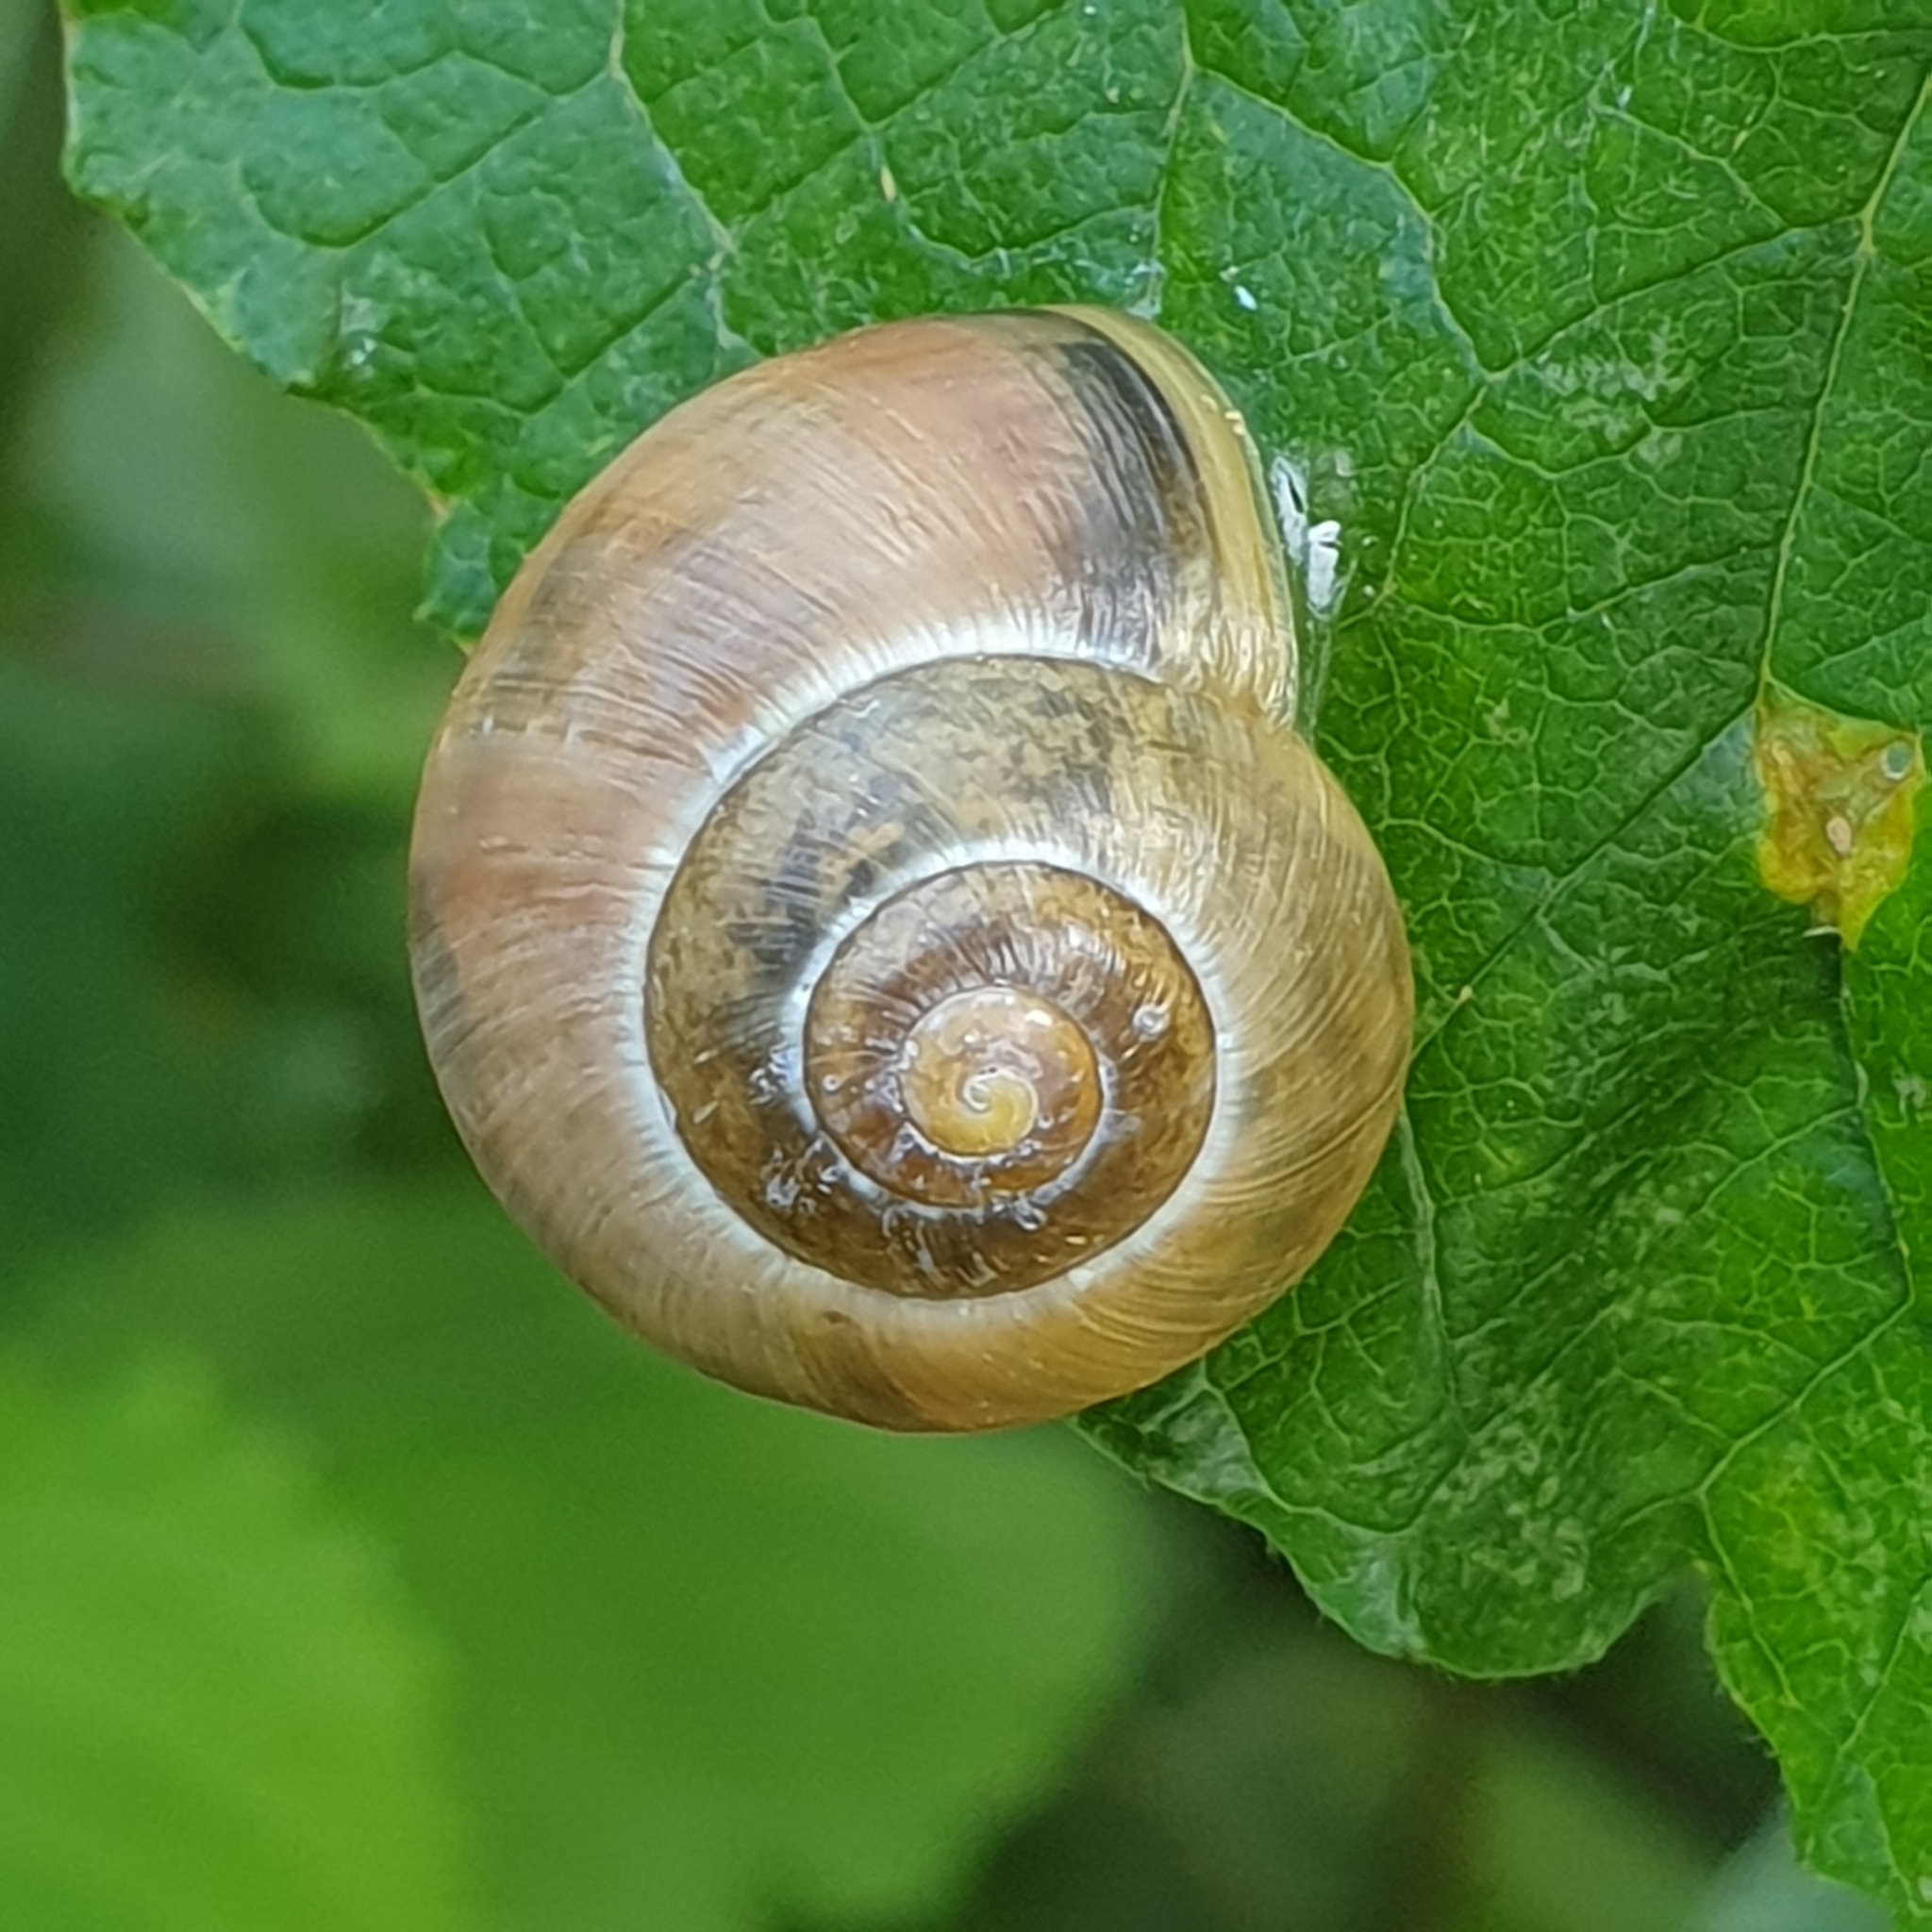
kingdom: Animalia
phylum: Mollusca
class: Gastropoda
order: Stylommatophora
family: Helicidae
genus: Cepaea
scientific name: Cepaea
